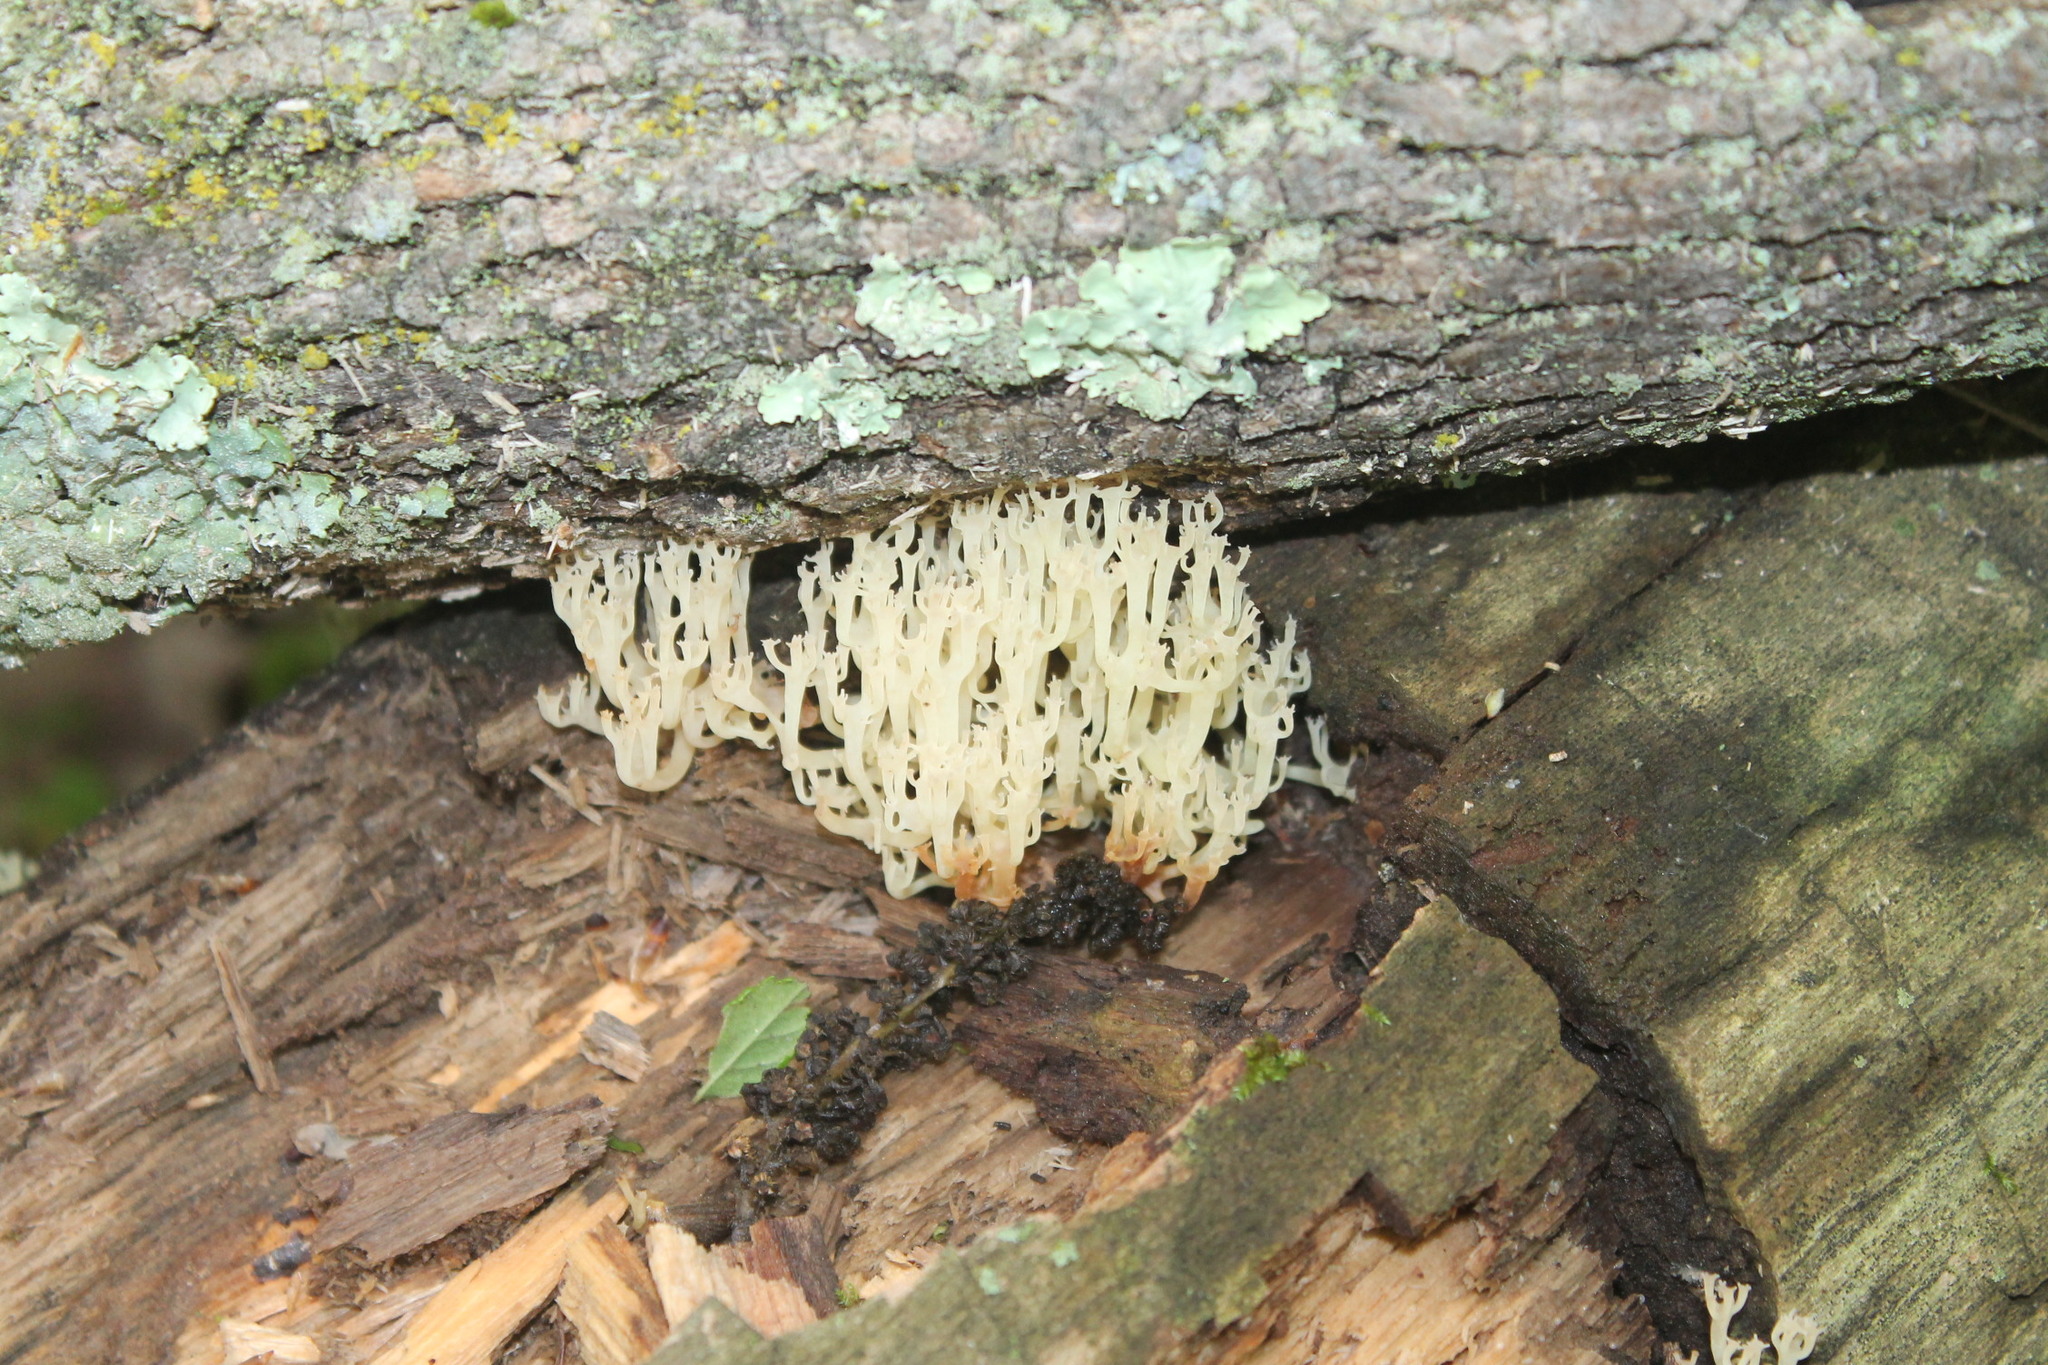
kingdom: Fungi
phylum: Basidiomycota
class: Agaricomycetes
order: Russulales
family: Auriscalpiaceae
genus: Artomyces
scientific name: Artomyces pyxidatus
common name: Crown-tipped coral fungus
